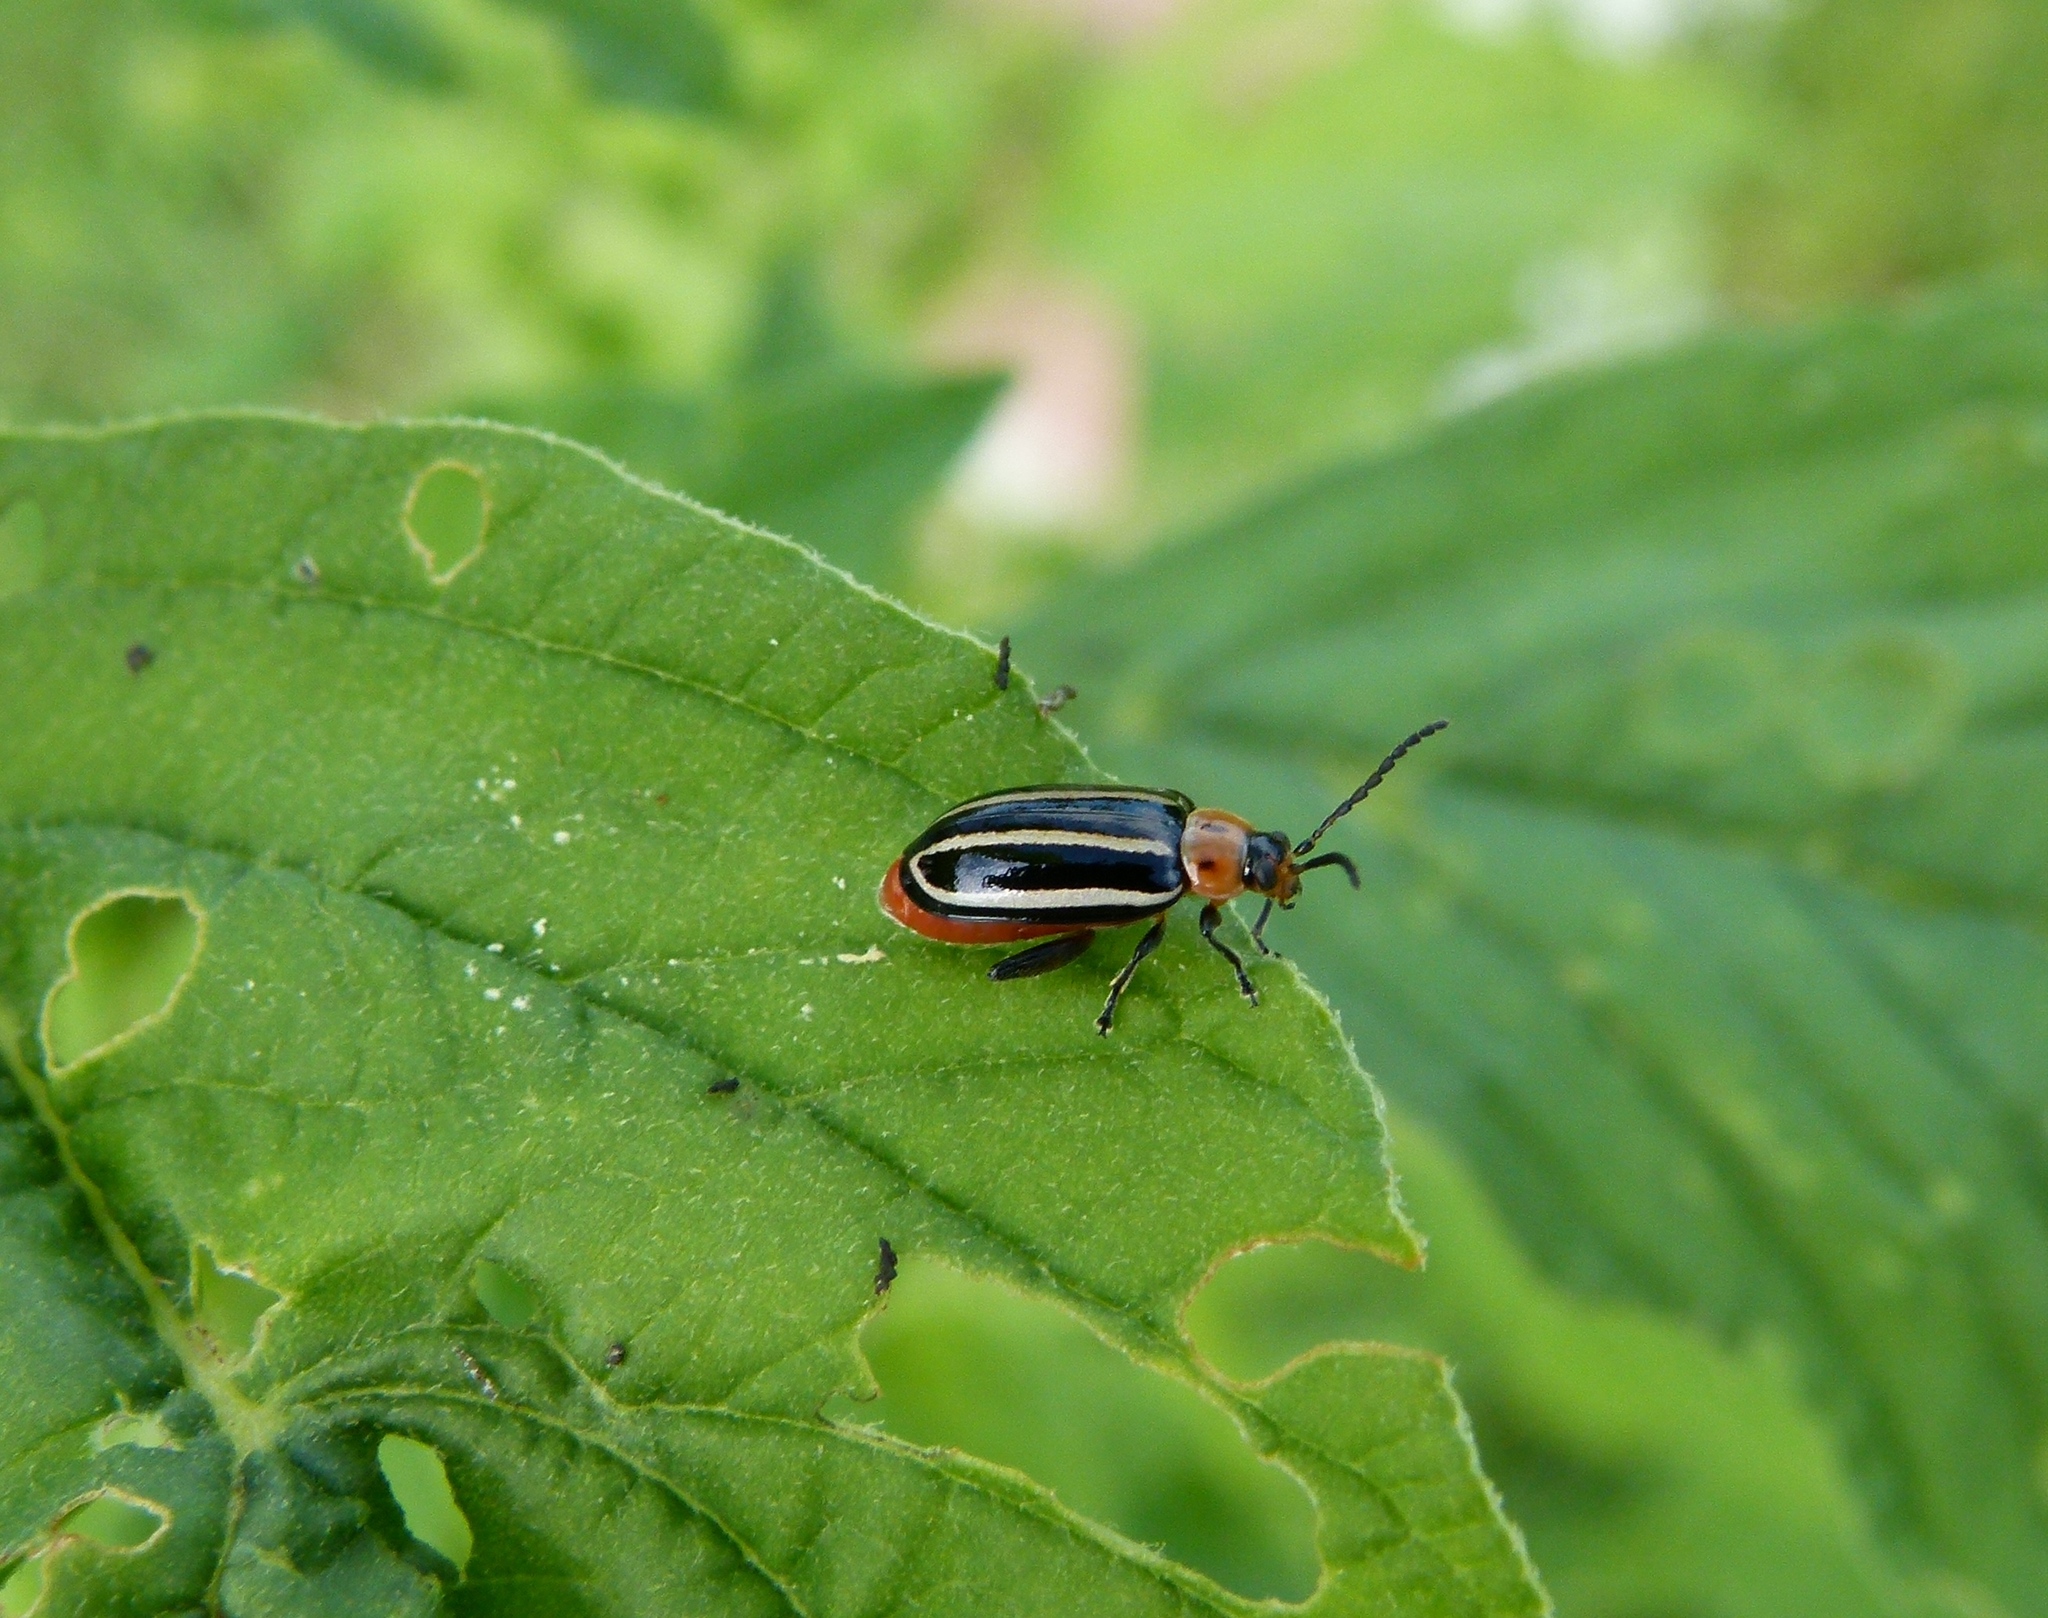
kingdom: Animalia
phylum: Arthropoda
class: Insecta
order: Coleoptera
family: Chrysomelidae
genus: Disonycha
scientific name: Disonycha glabrata
